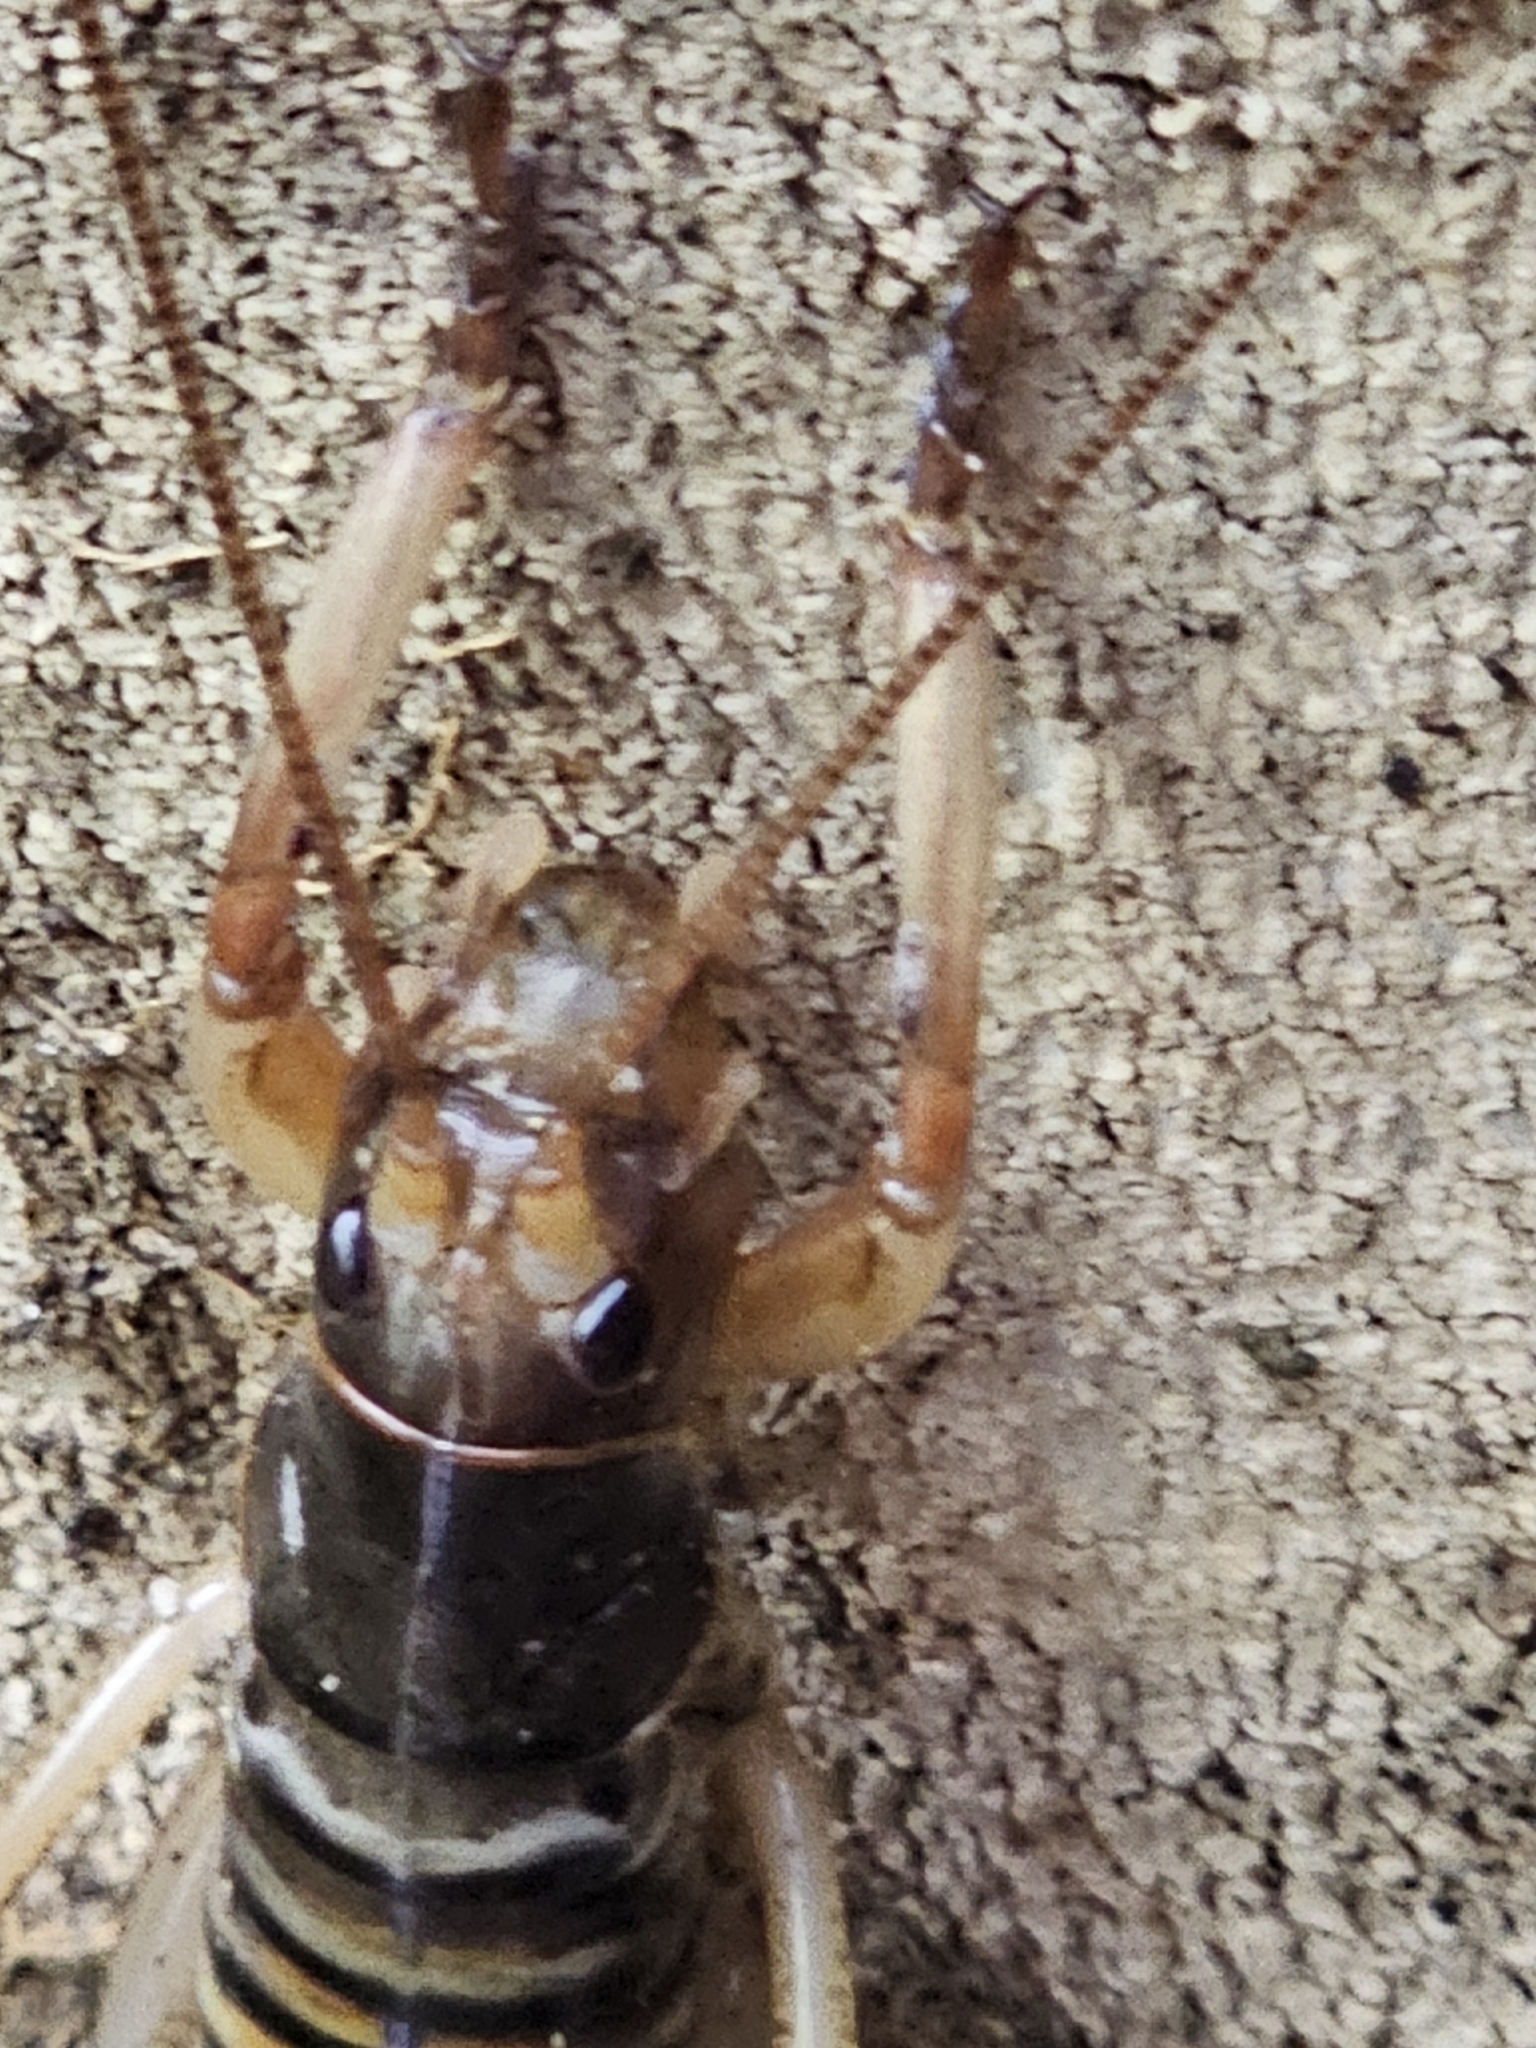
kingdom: Animalia
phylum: Arthropoda
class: Insecta
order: Orthoptera
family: Anostostomatidae
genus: Hemideina
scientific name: Hemideina crassidens
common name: Wellington tree weta
